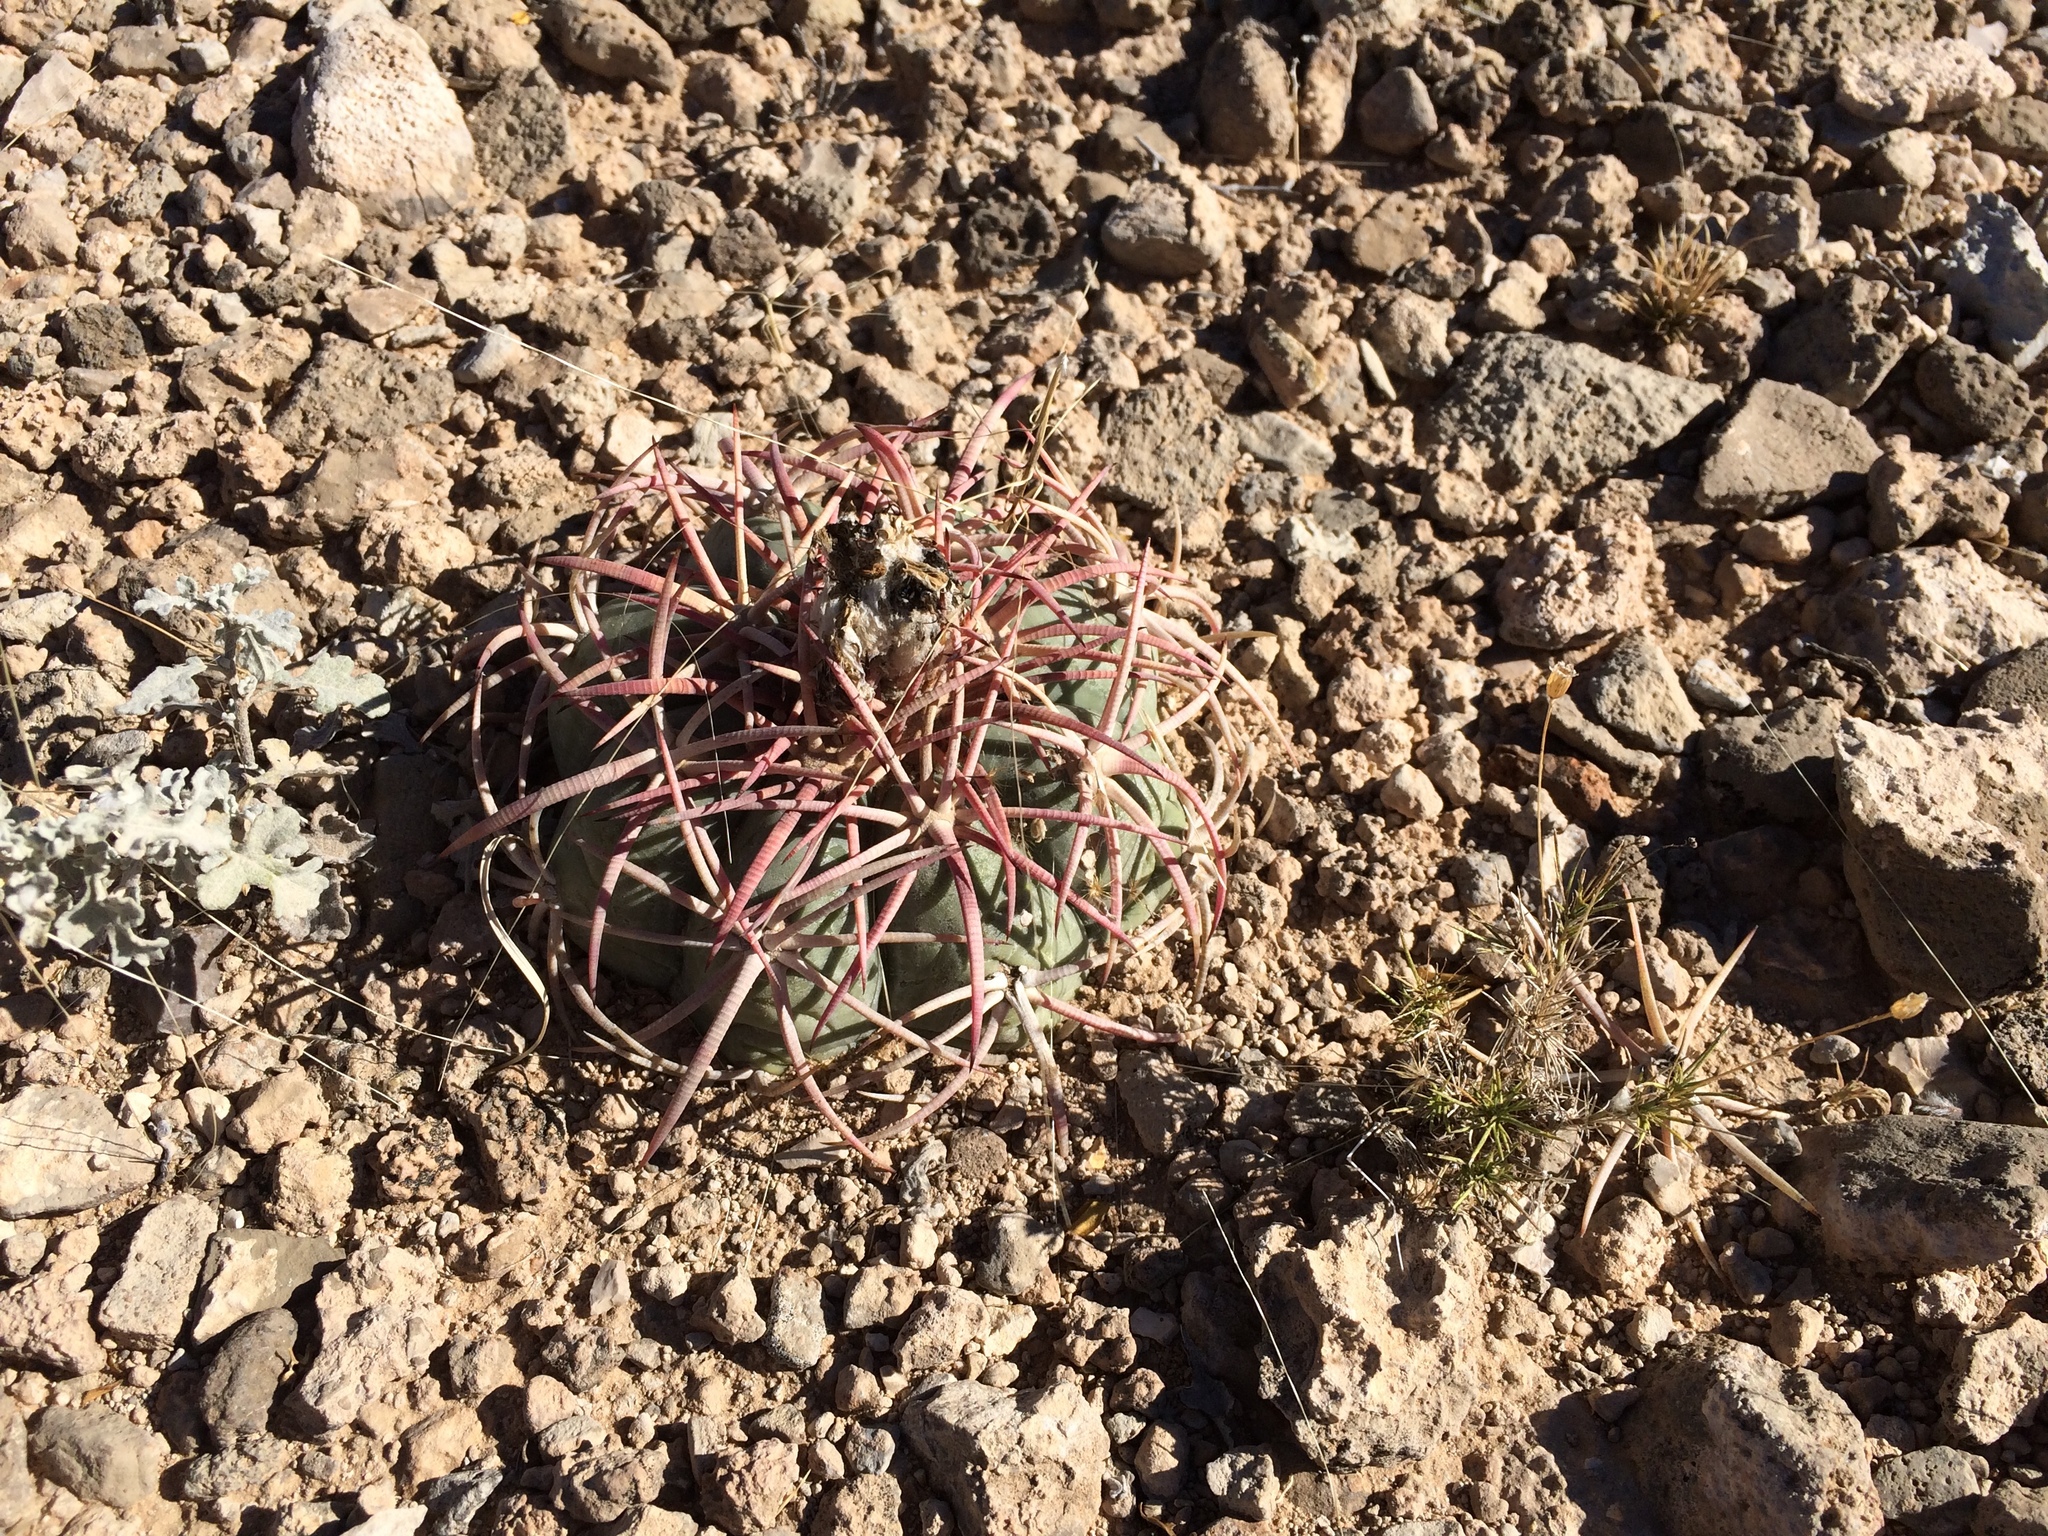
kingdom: Plantae
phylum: Tracheophyta
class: Magnoliopsida
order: Caryophyllales
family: Cactaceae
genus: Echinocactus
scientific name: Echinocactus horizonthalonius
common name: Devilshead
